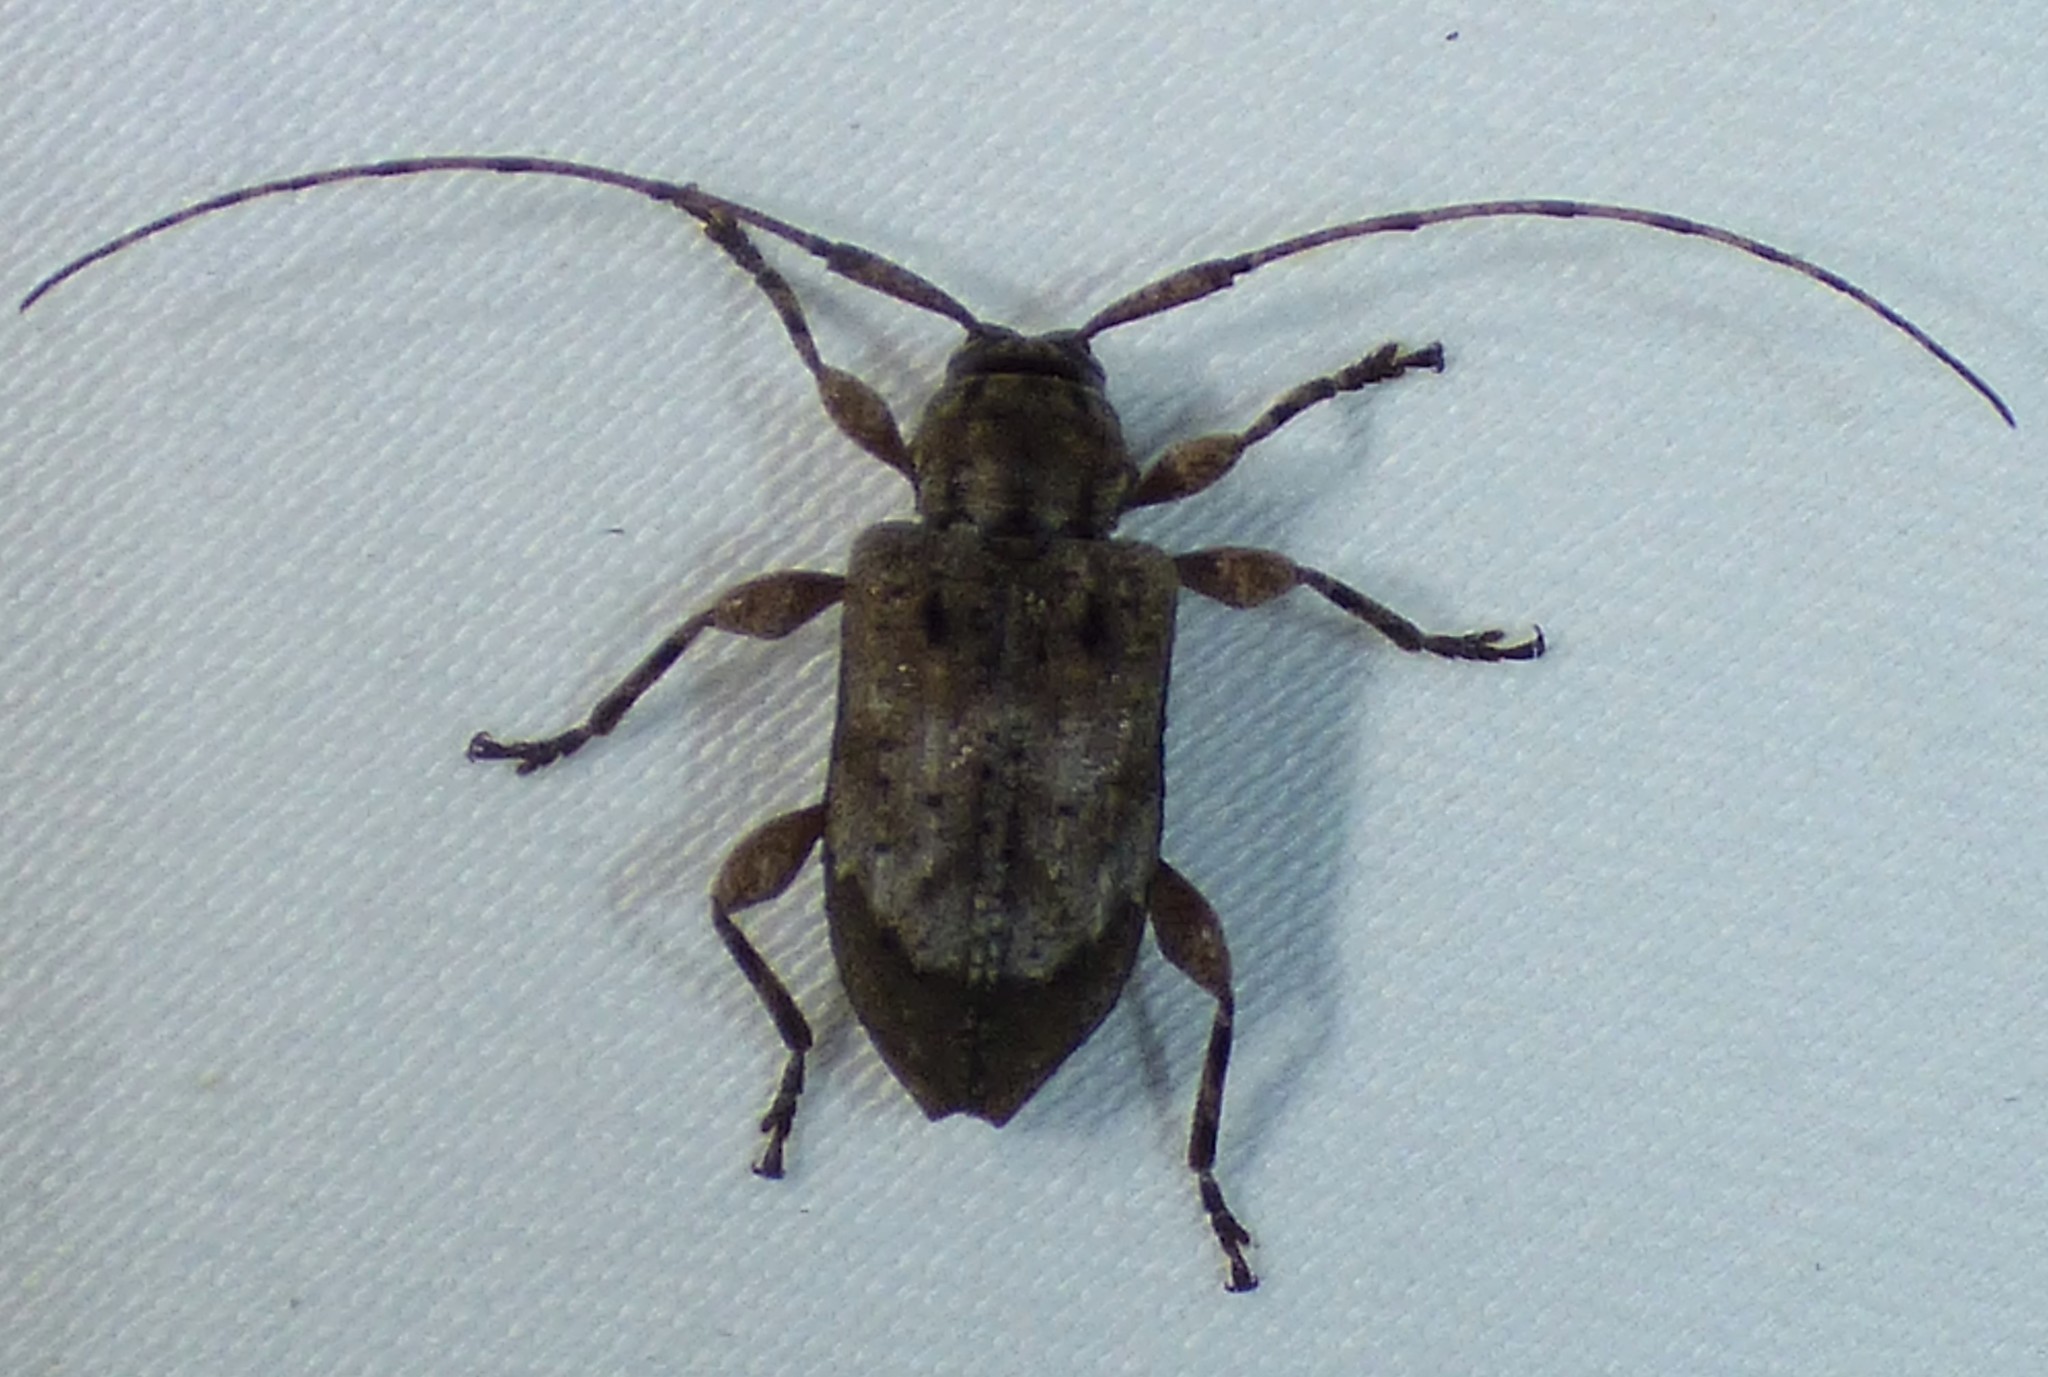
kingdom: Animalia
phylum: Arthropoda
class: Insecta
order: Coleoptera
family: Cerambycidae
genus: Astylopsis
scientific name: Astylopsis arcuata
